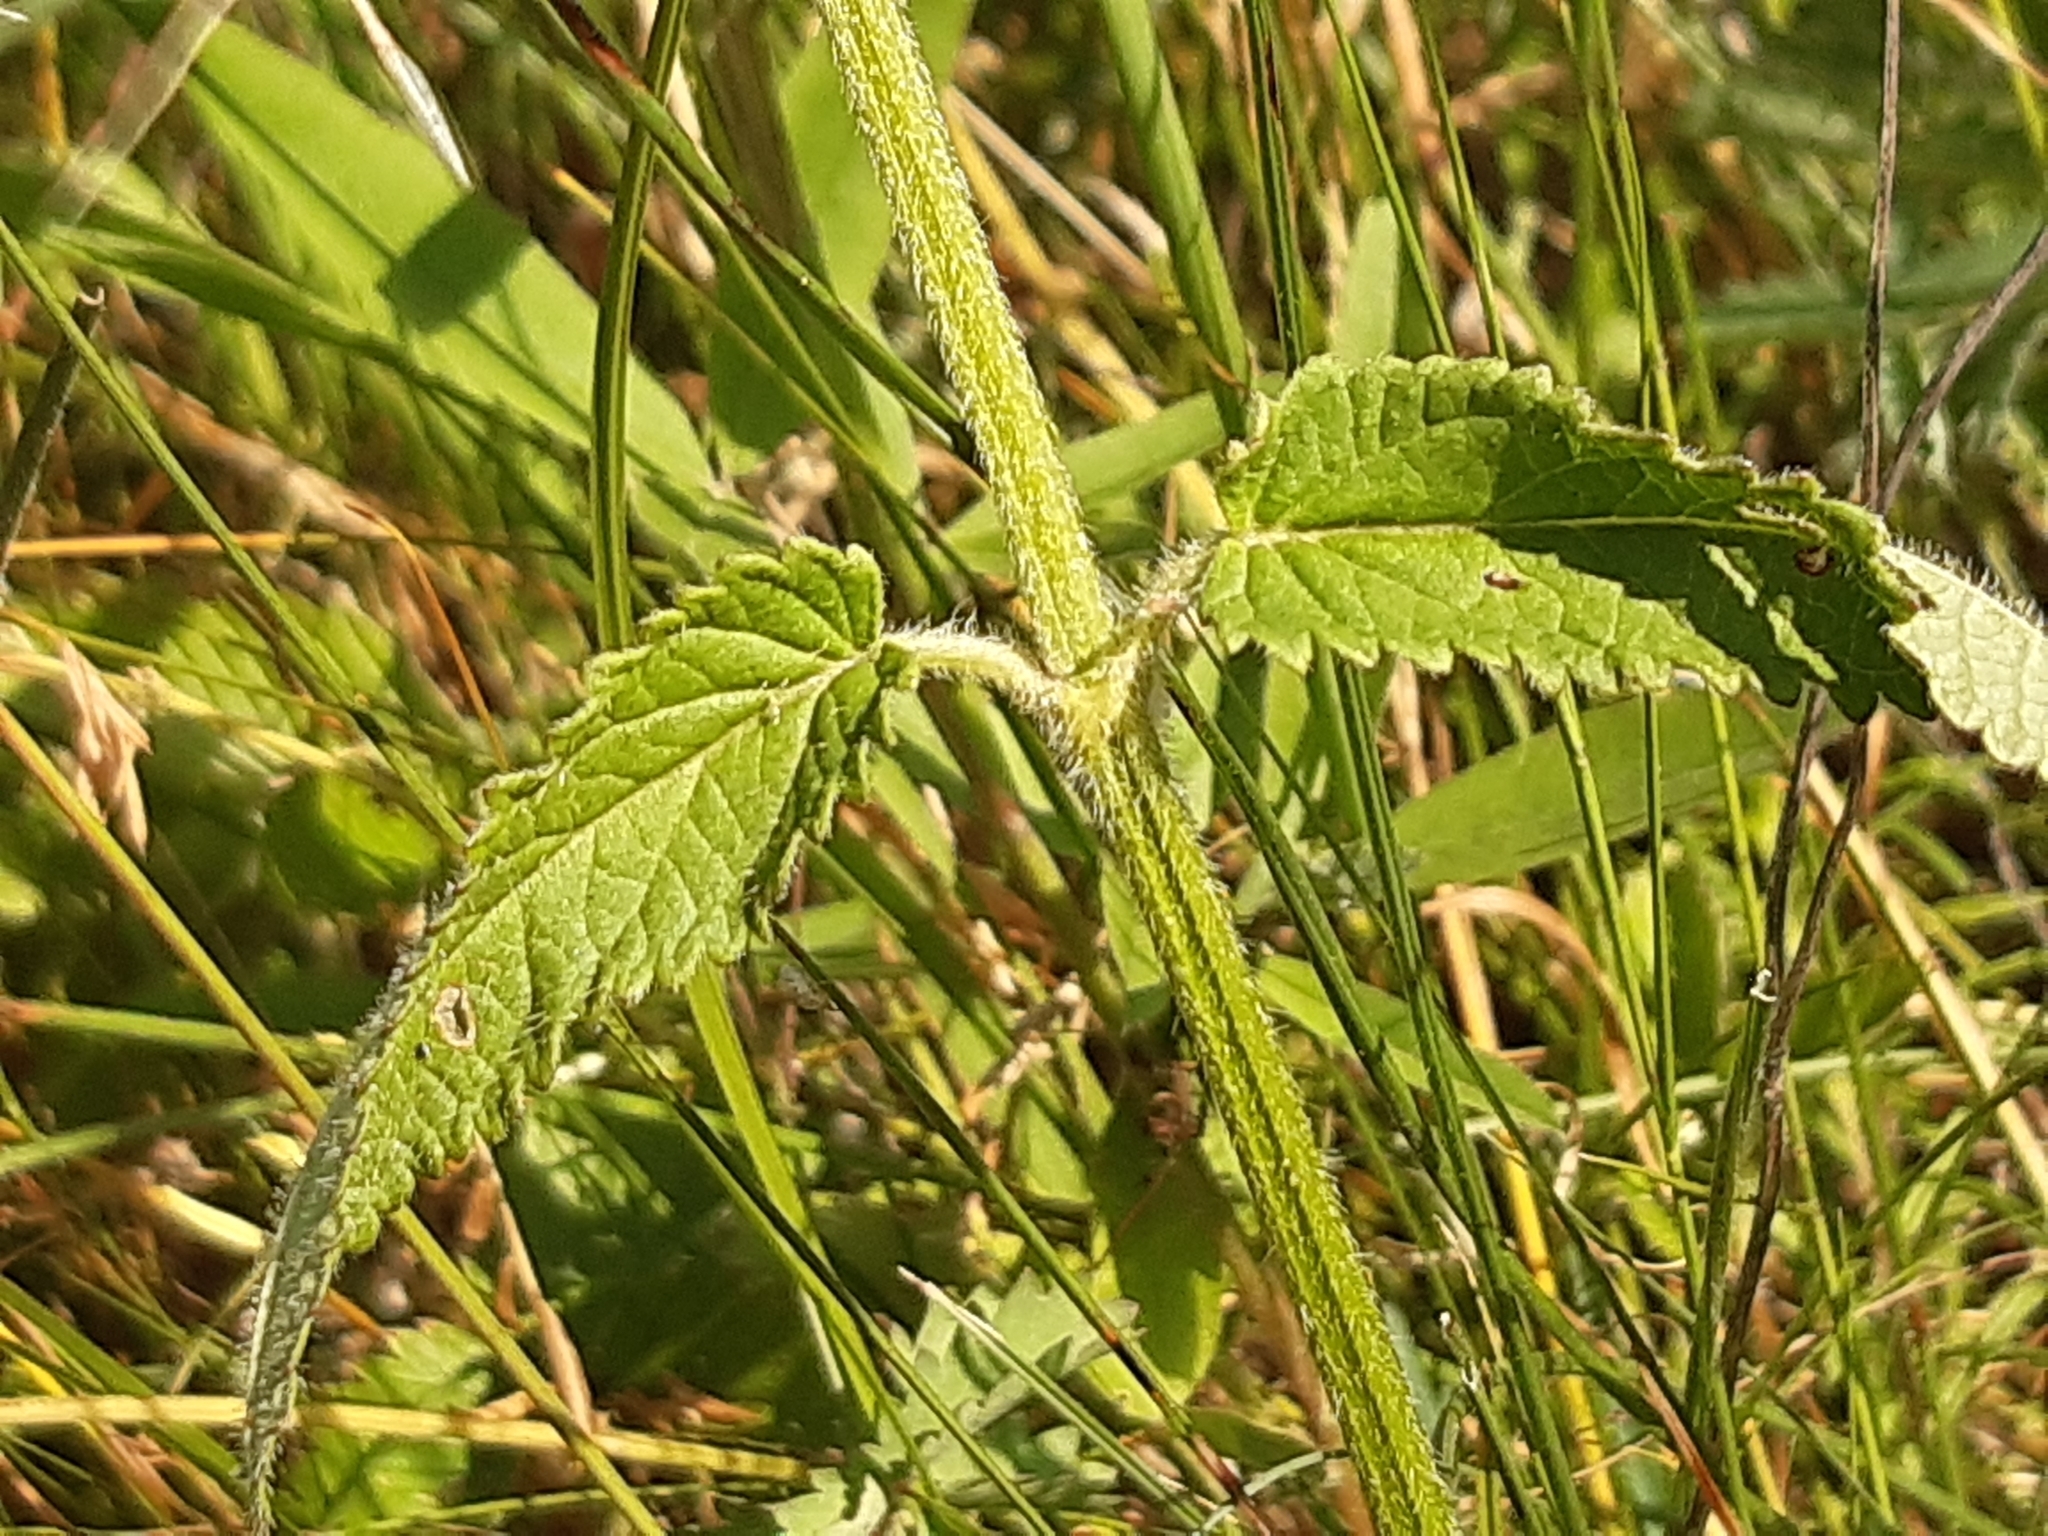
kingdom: Plantae
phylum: Tracheophyta
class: Magnoliopsida
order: Lamiales
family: Lamiaceae
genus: Betonica
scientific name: Betonica officinalis
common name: Bishop's-wort
